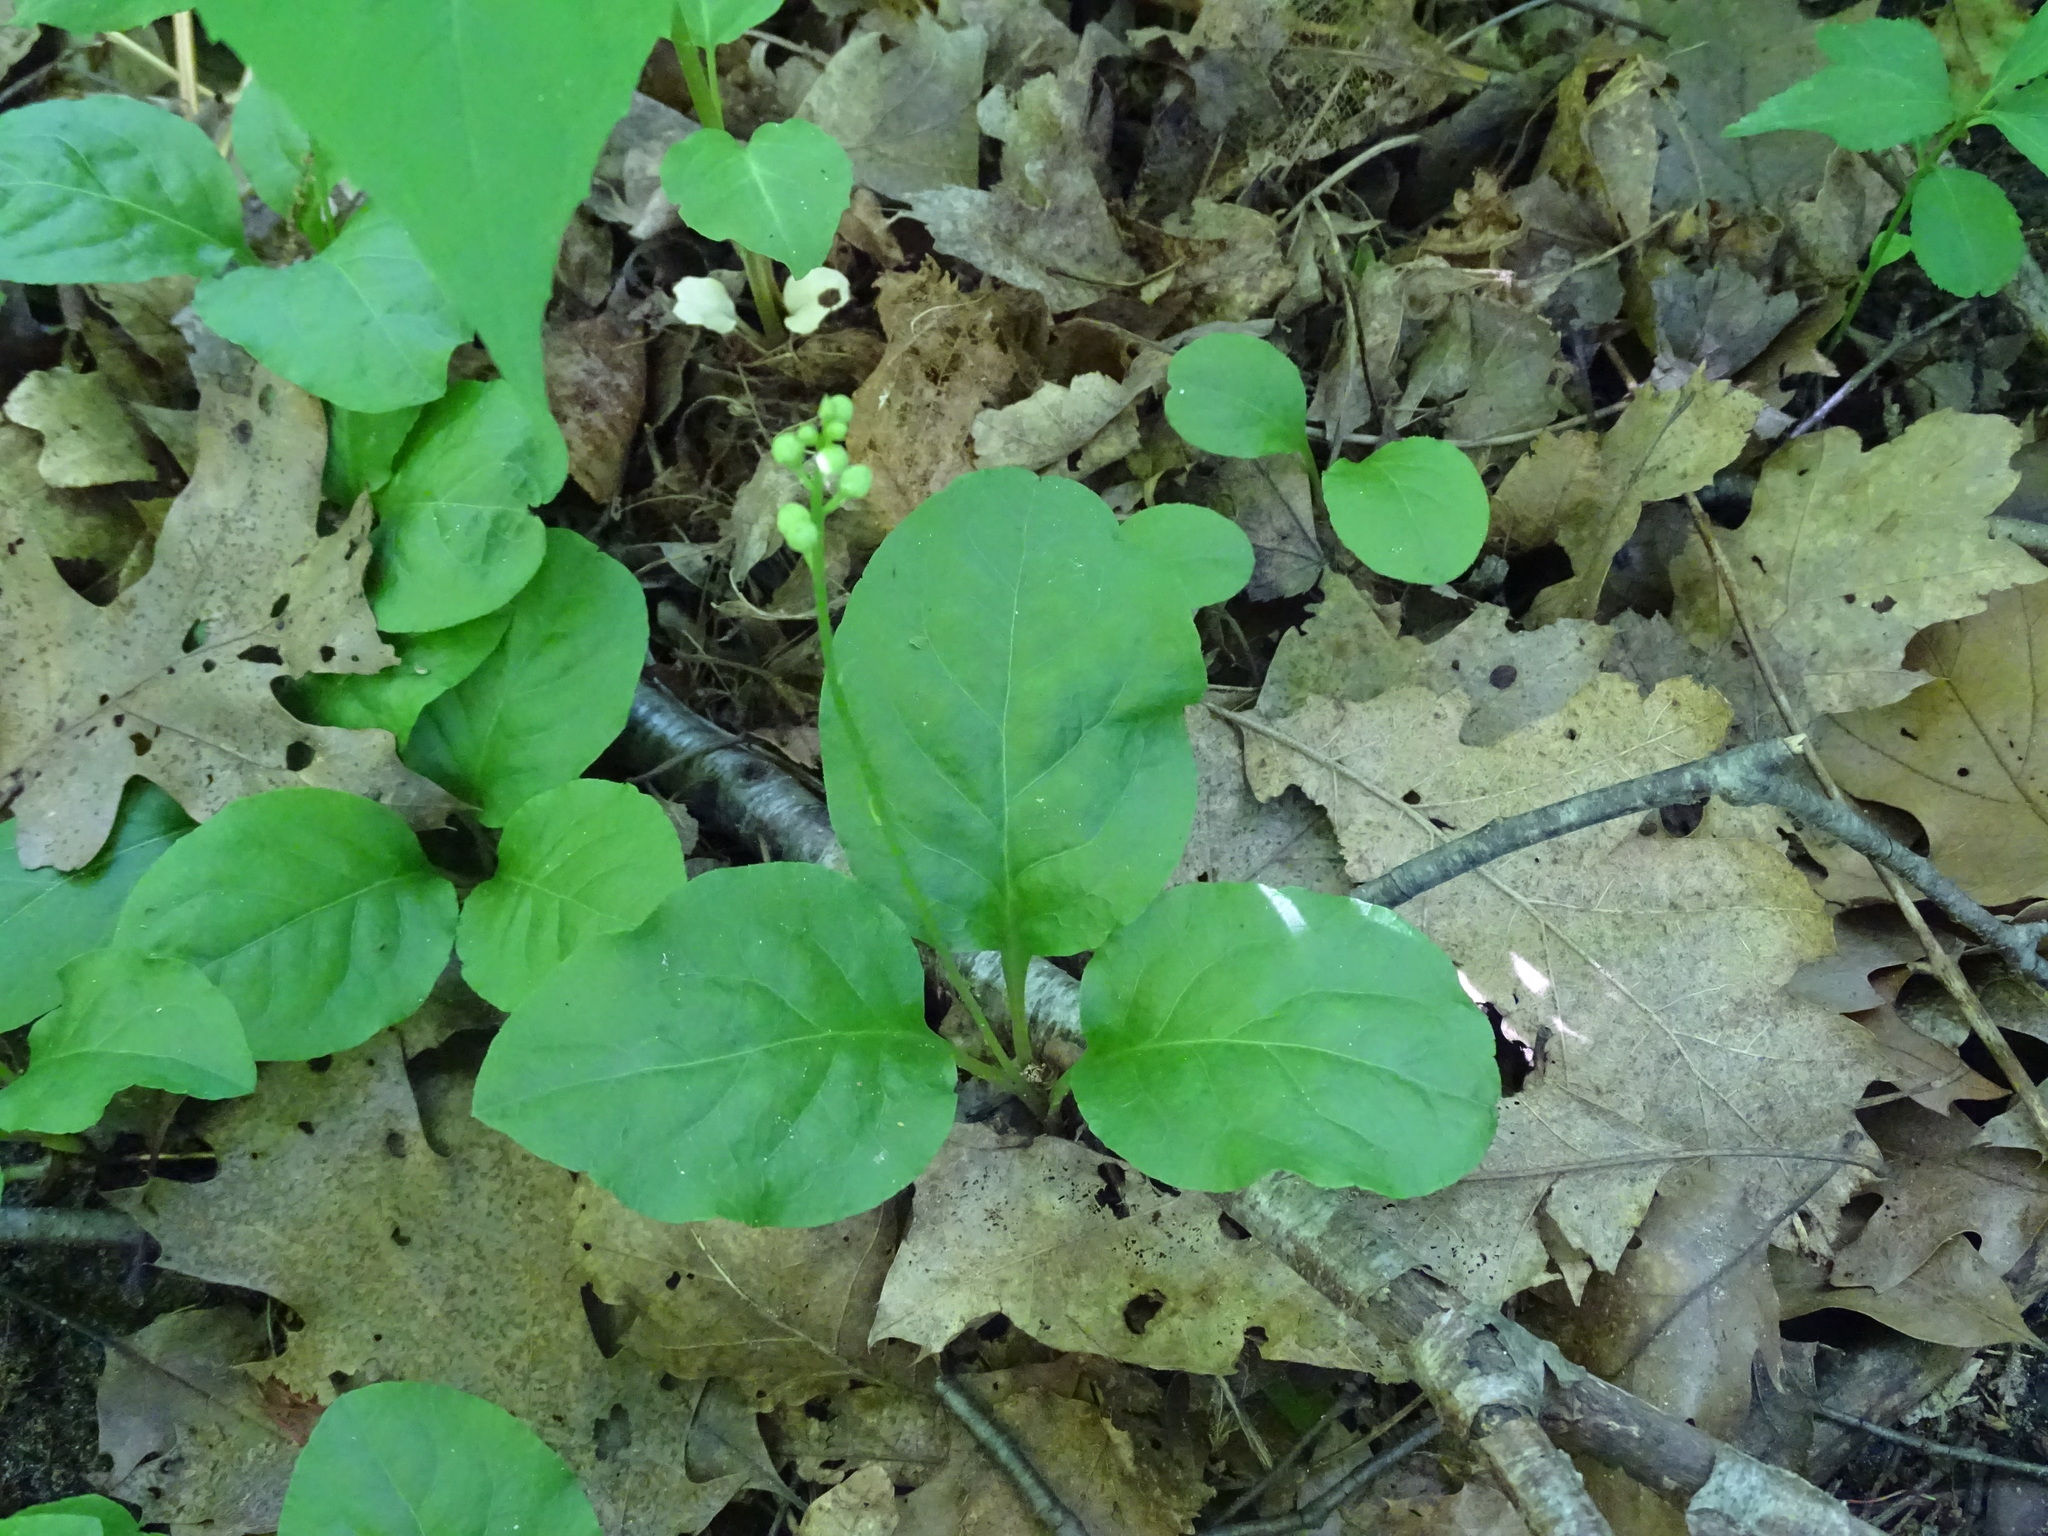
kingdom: Plantae
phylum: Tracheophyta
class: Magnoliopsida
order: Ericales
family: Ericaceae
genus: Pyrola
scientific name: Pyrola elliptica
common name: Shinleaf
